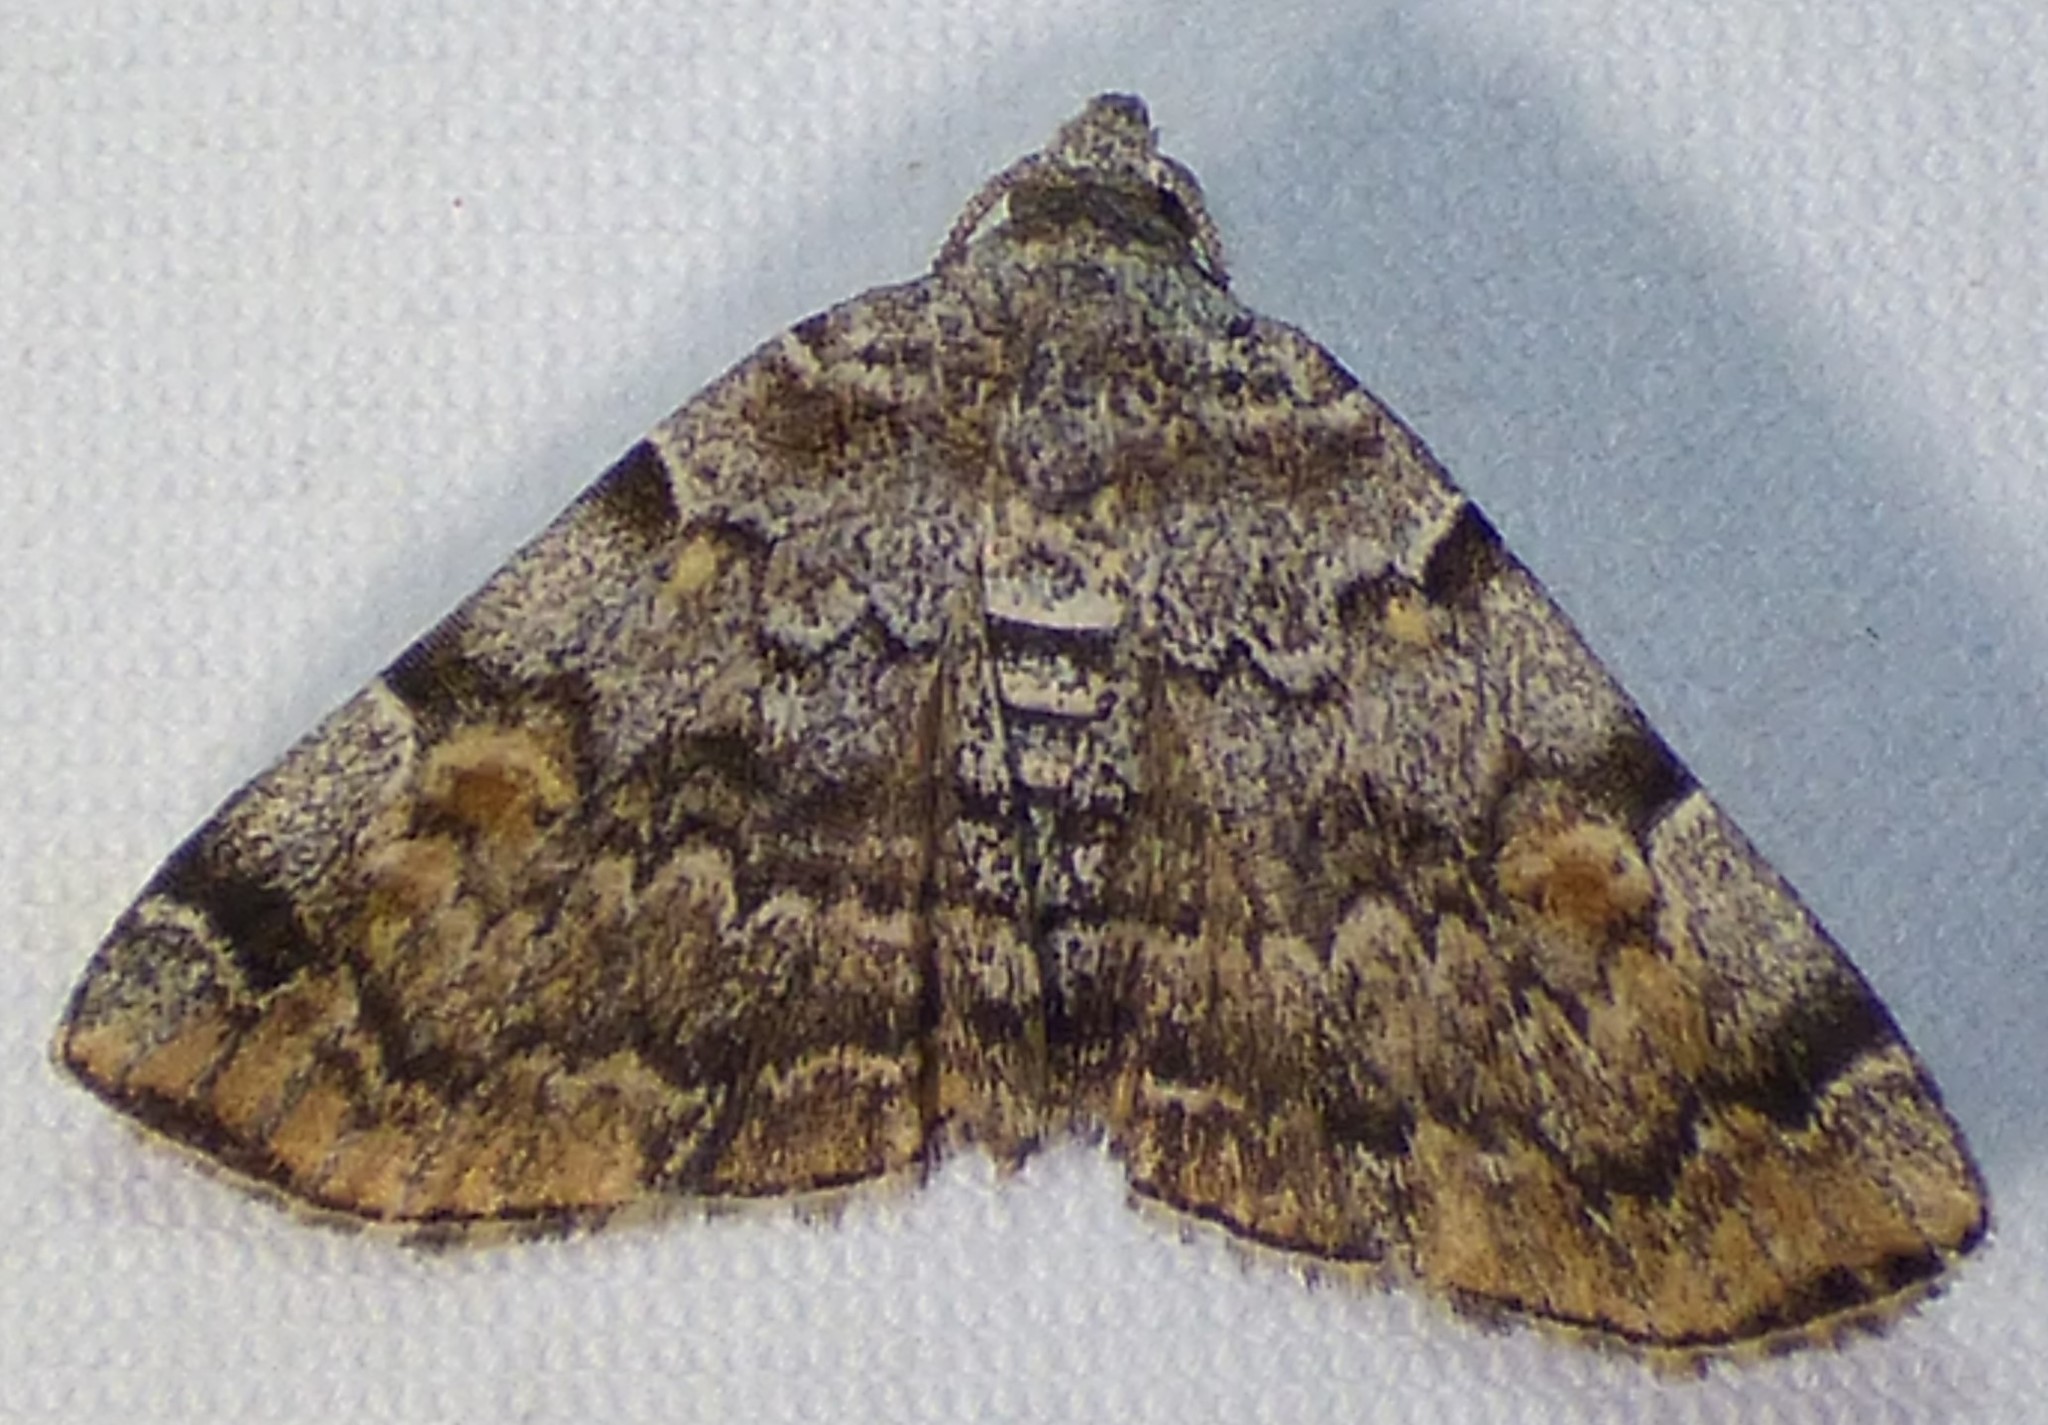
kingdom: Animalia
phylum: Arthropoda
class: Insecta
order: Lepidoptera
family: Erebidae
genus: Idia
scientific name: Idia americalis
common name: American idia moth
